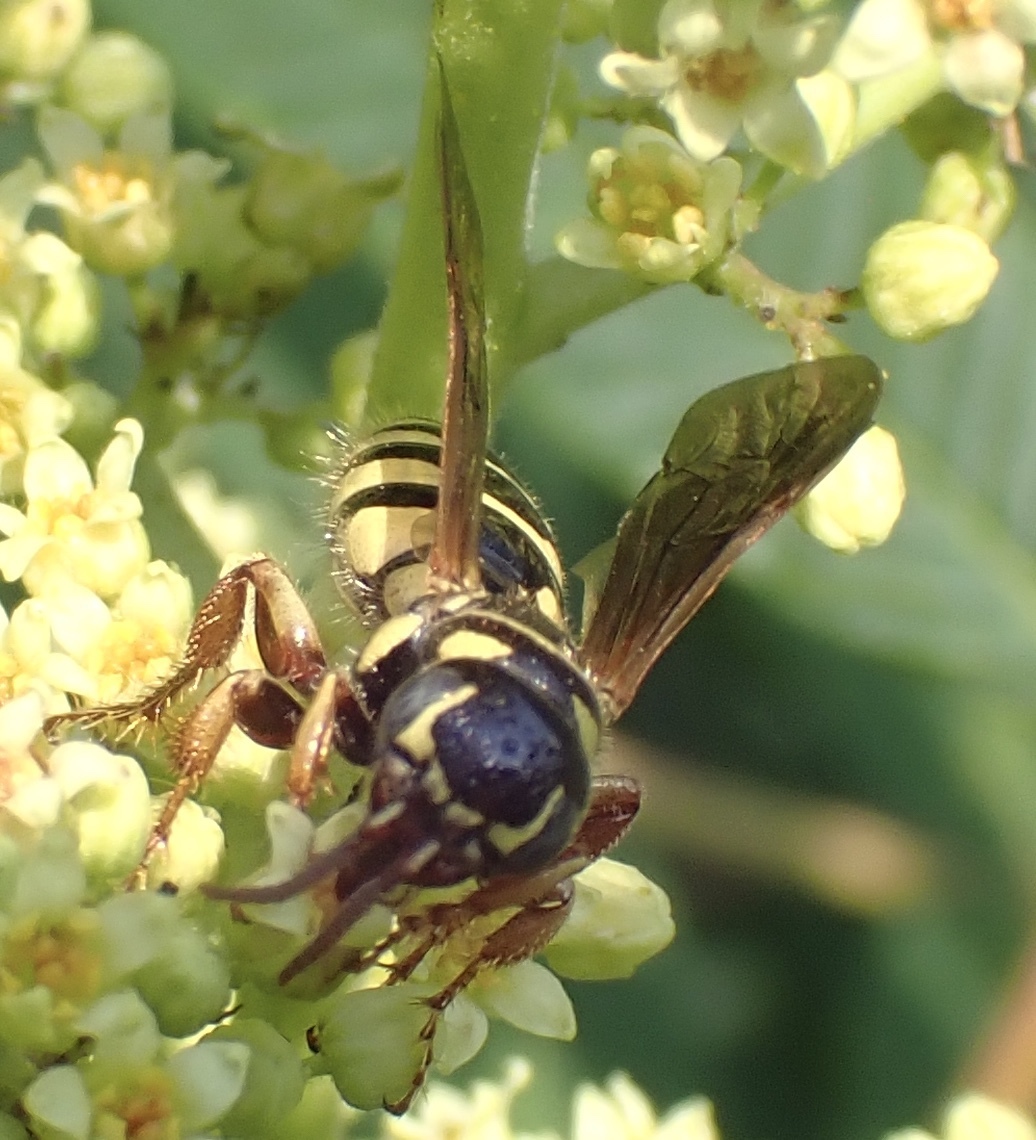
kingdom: Animalia
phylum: Arthropoda
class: Insecta
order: Hymenoptera
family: Tiphiidae
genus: Myzinum
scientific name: Myzinum quinquecinctum
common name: Five-banded thynnid wasp
